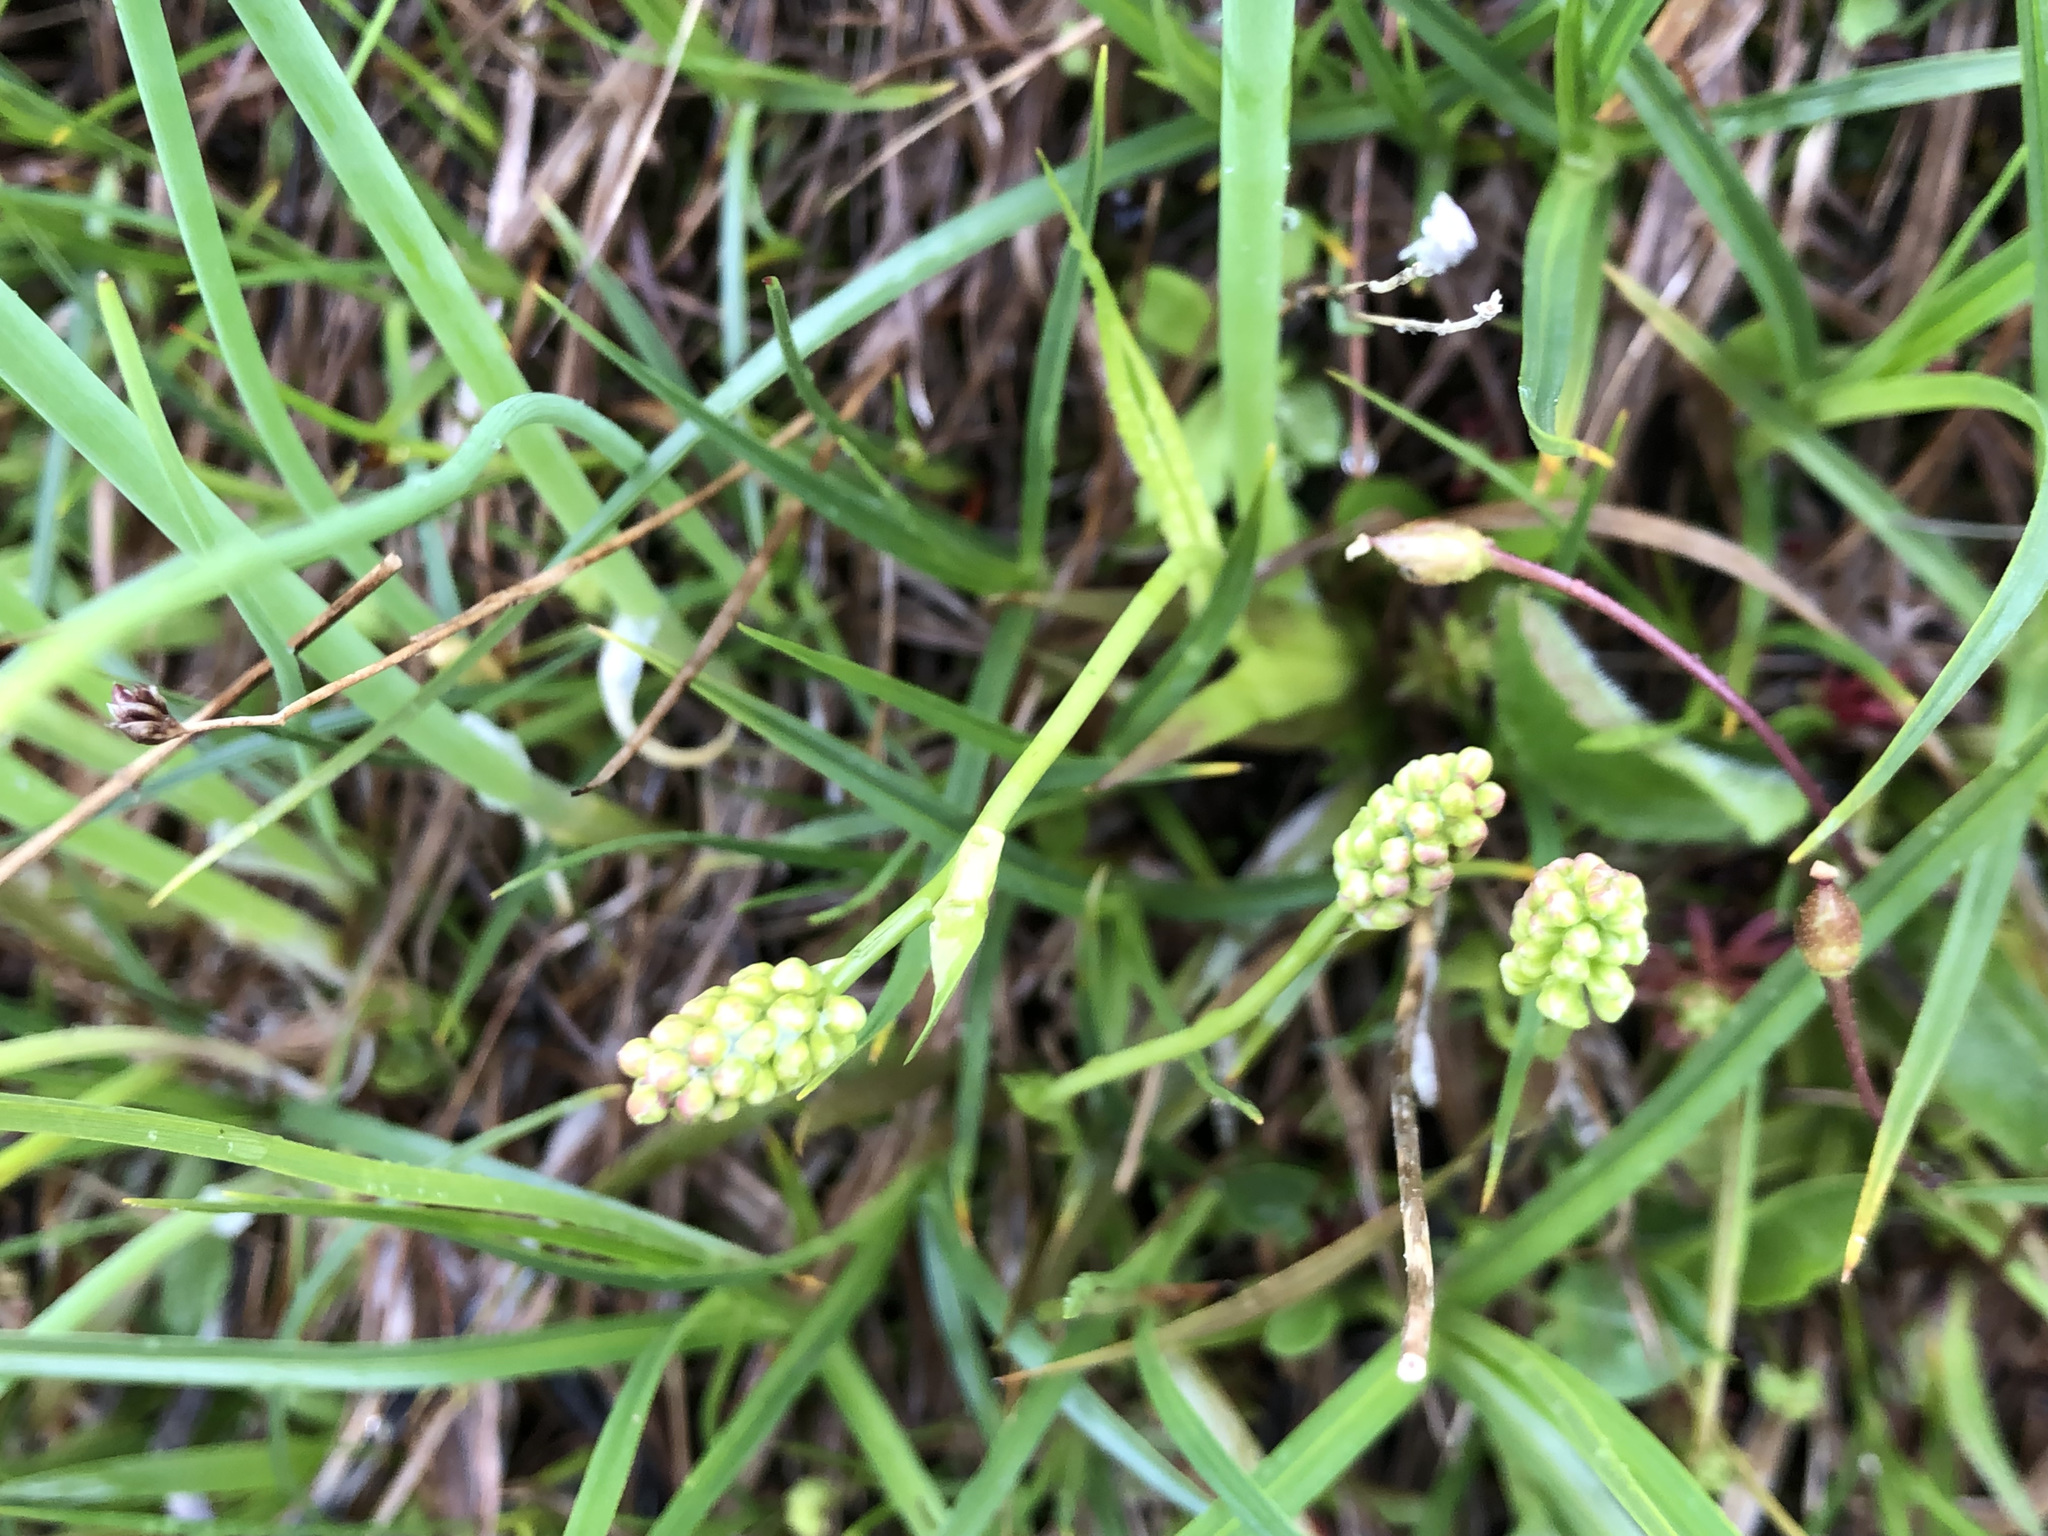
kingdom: Plantae
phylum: Tracheophyta
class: Liliopsida
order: Alismatales
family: Tofieldiaceae
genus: Tofieldia
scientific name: Tofieldia calyculata
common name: German-asphodel
